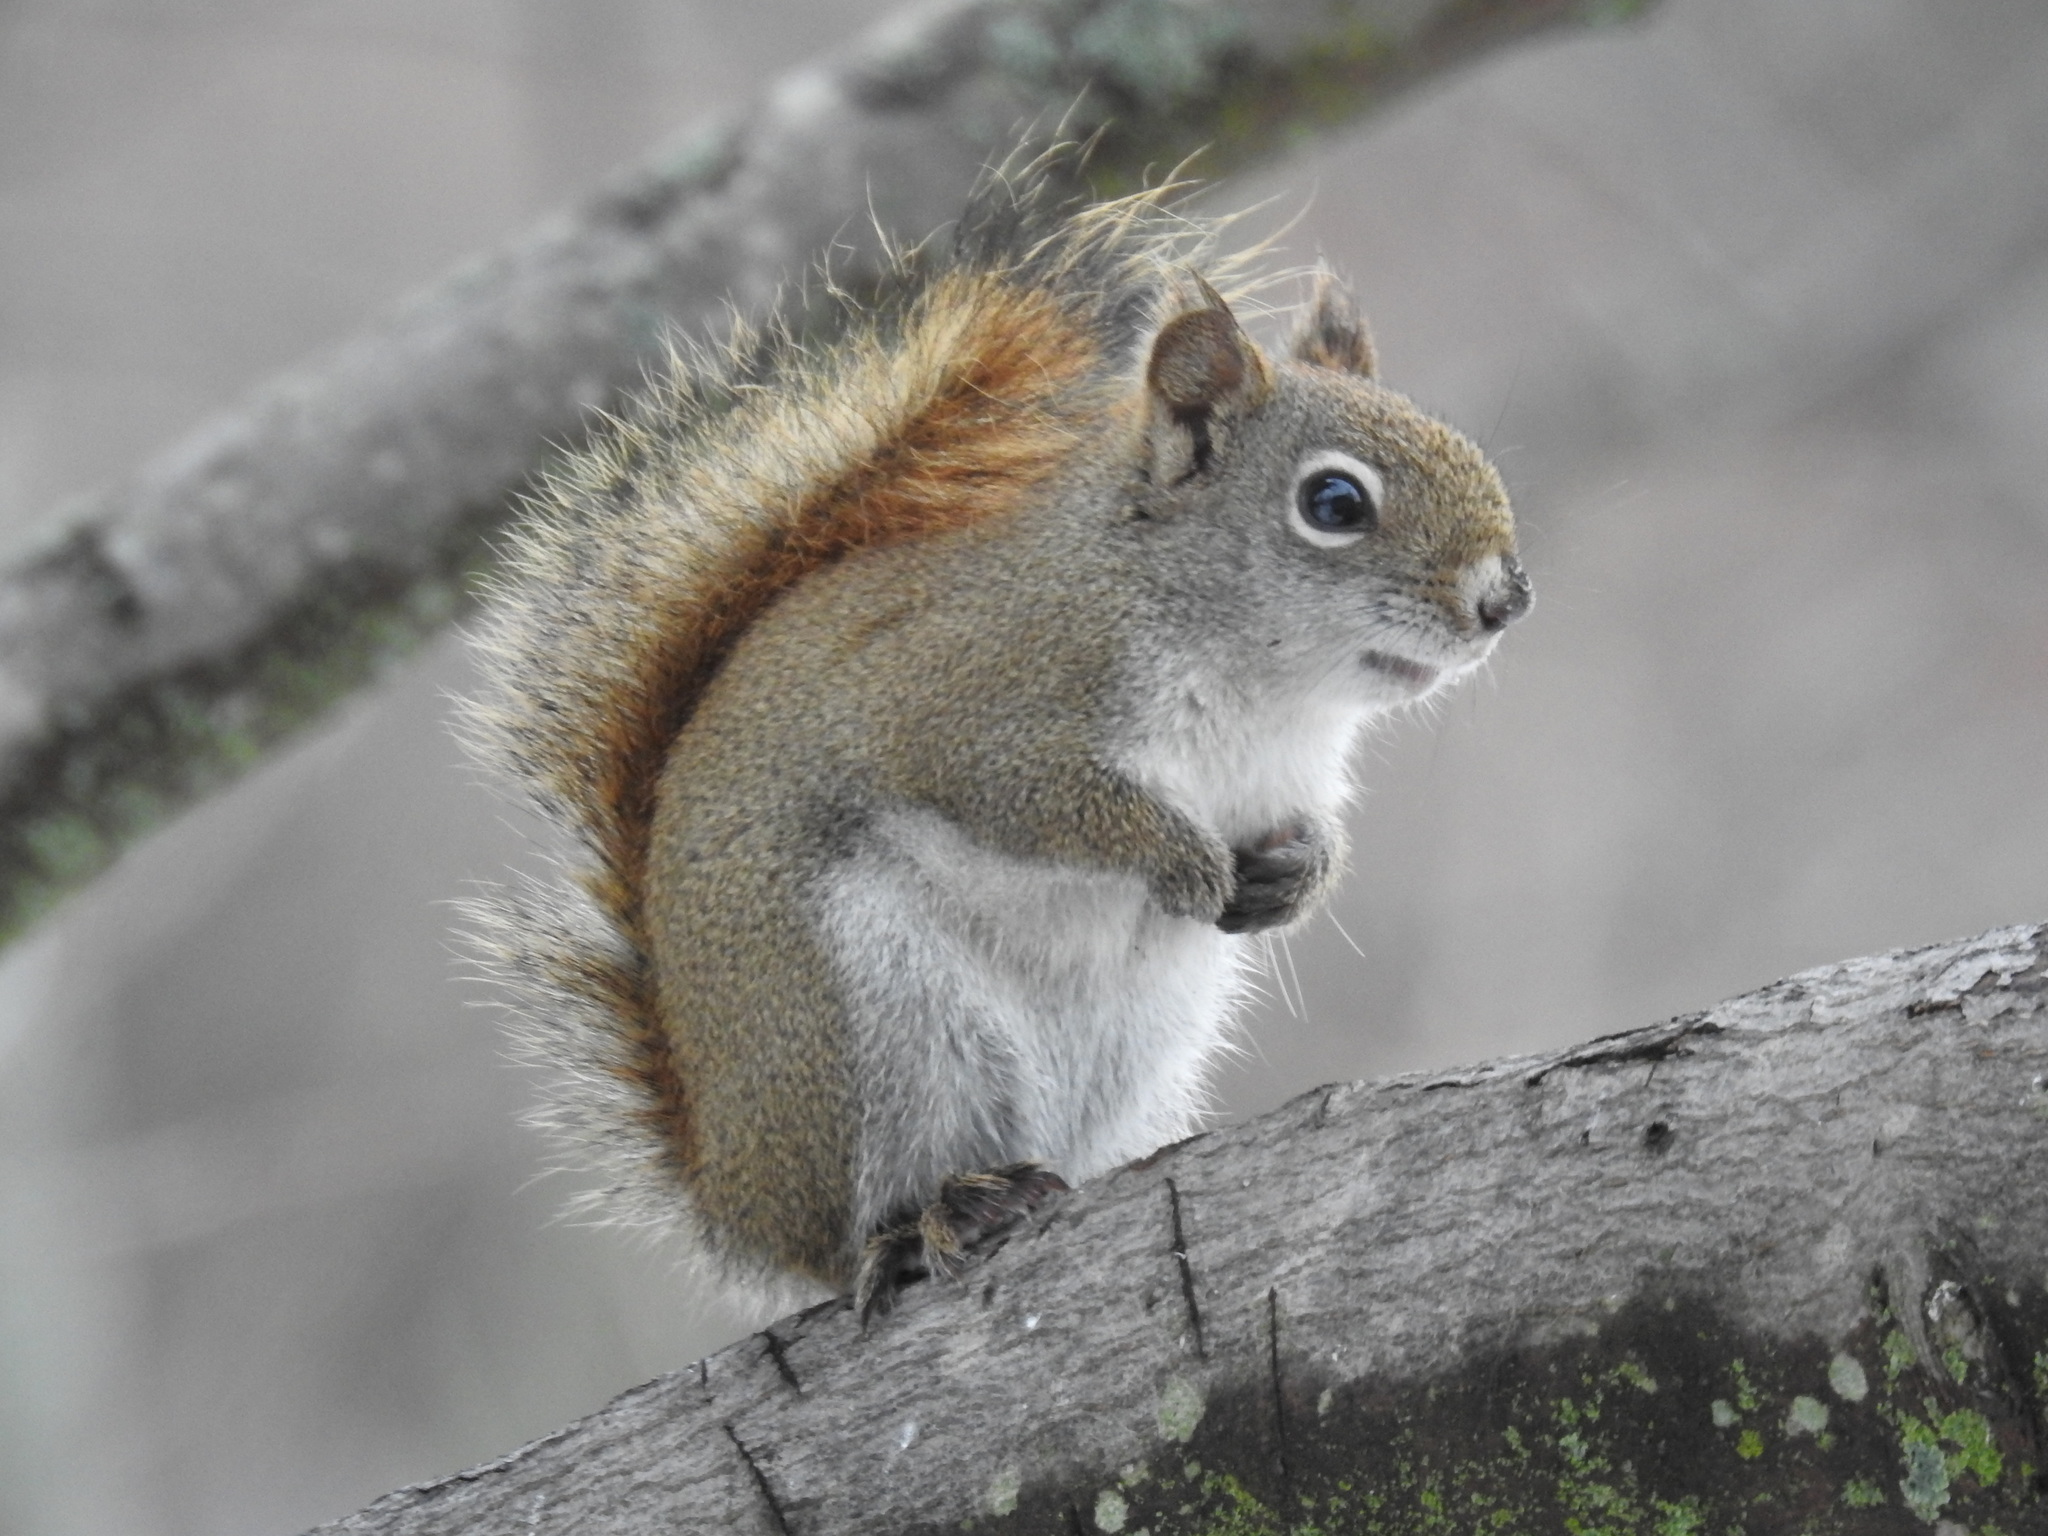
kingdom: Animalia
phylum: Chordata
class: Mammalia
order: Rodentia
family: Sciuridae
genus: Tamiasciurus
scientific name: Tamiasciurus hudsonicus
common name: Red squirrel
